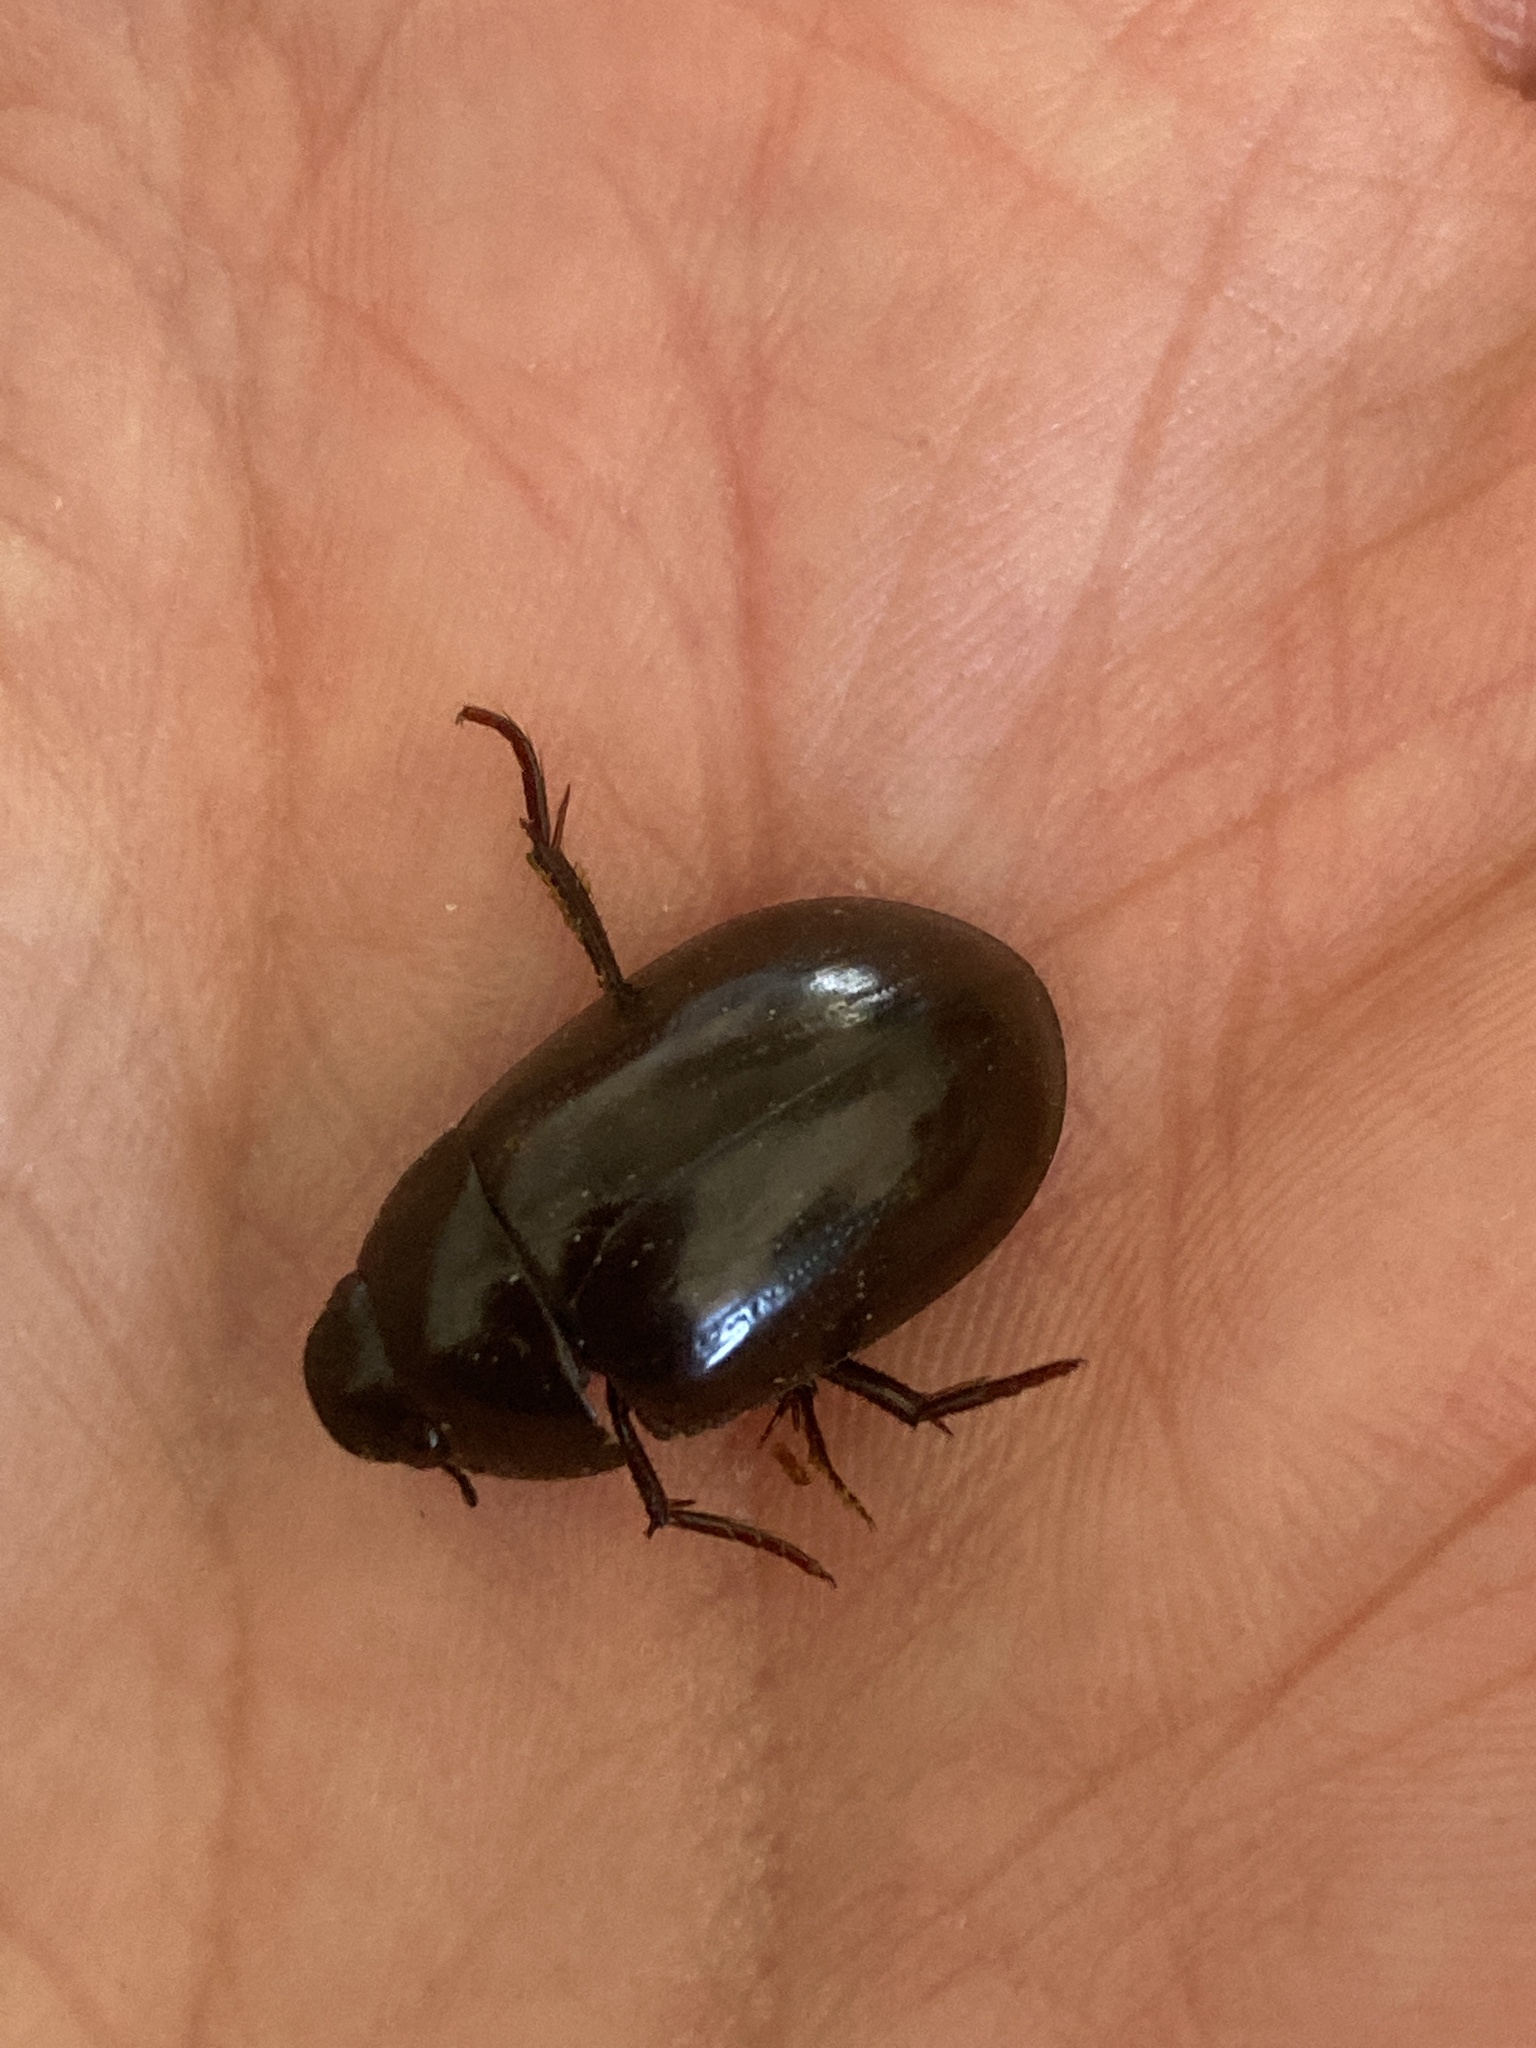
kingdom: Animalia
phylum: Arthropoda
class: Insecta
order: Coleoptera
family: Hydrophilidae
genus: Hydrochara
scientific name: Hydrochara
